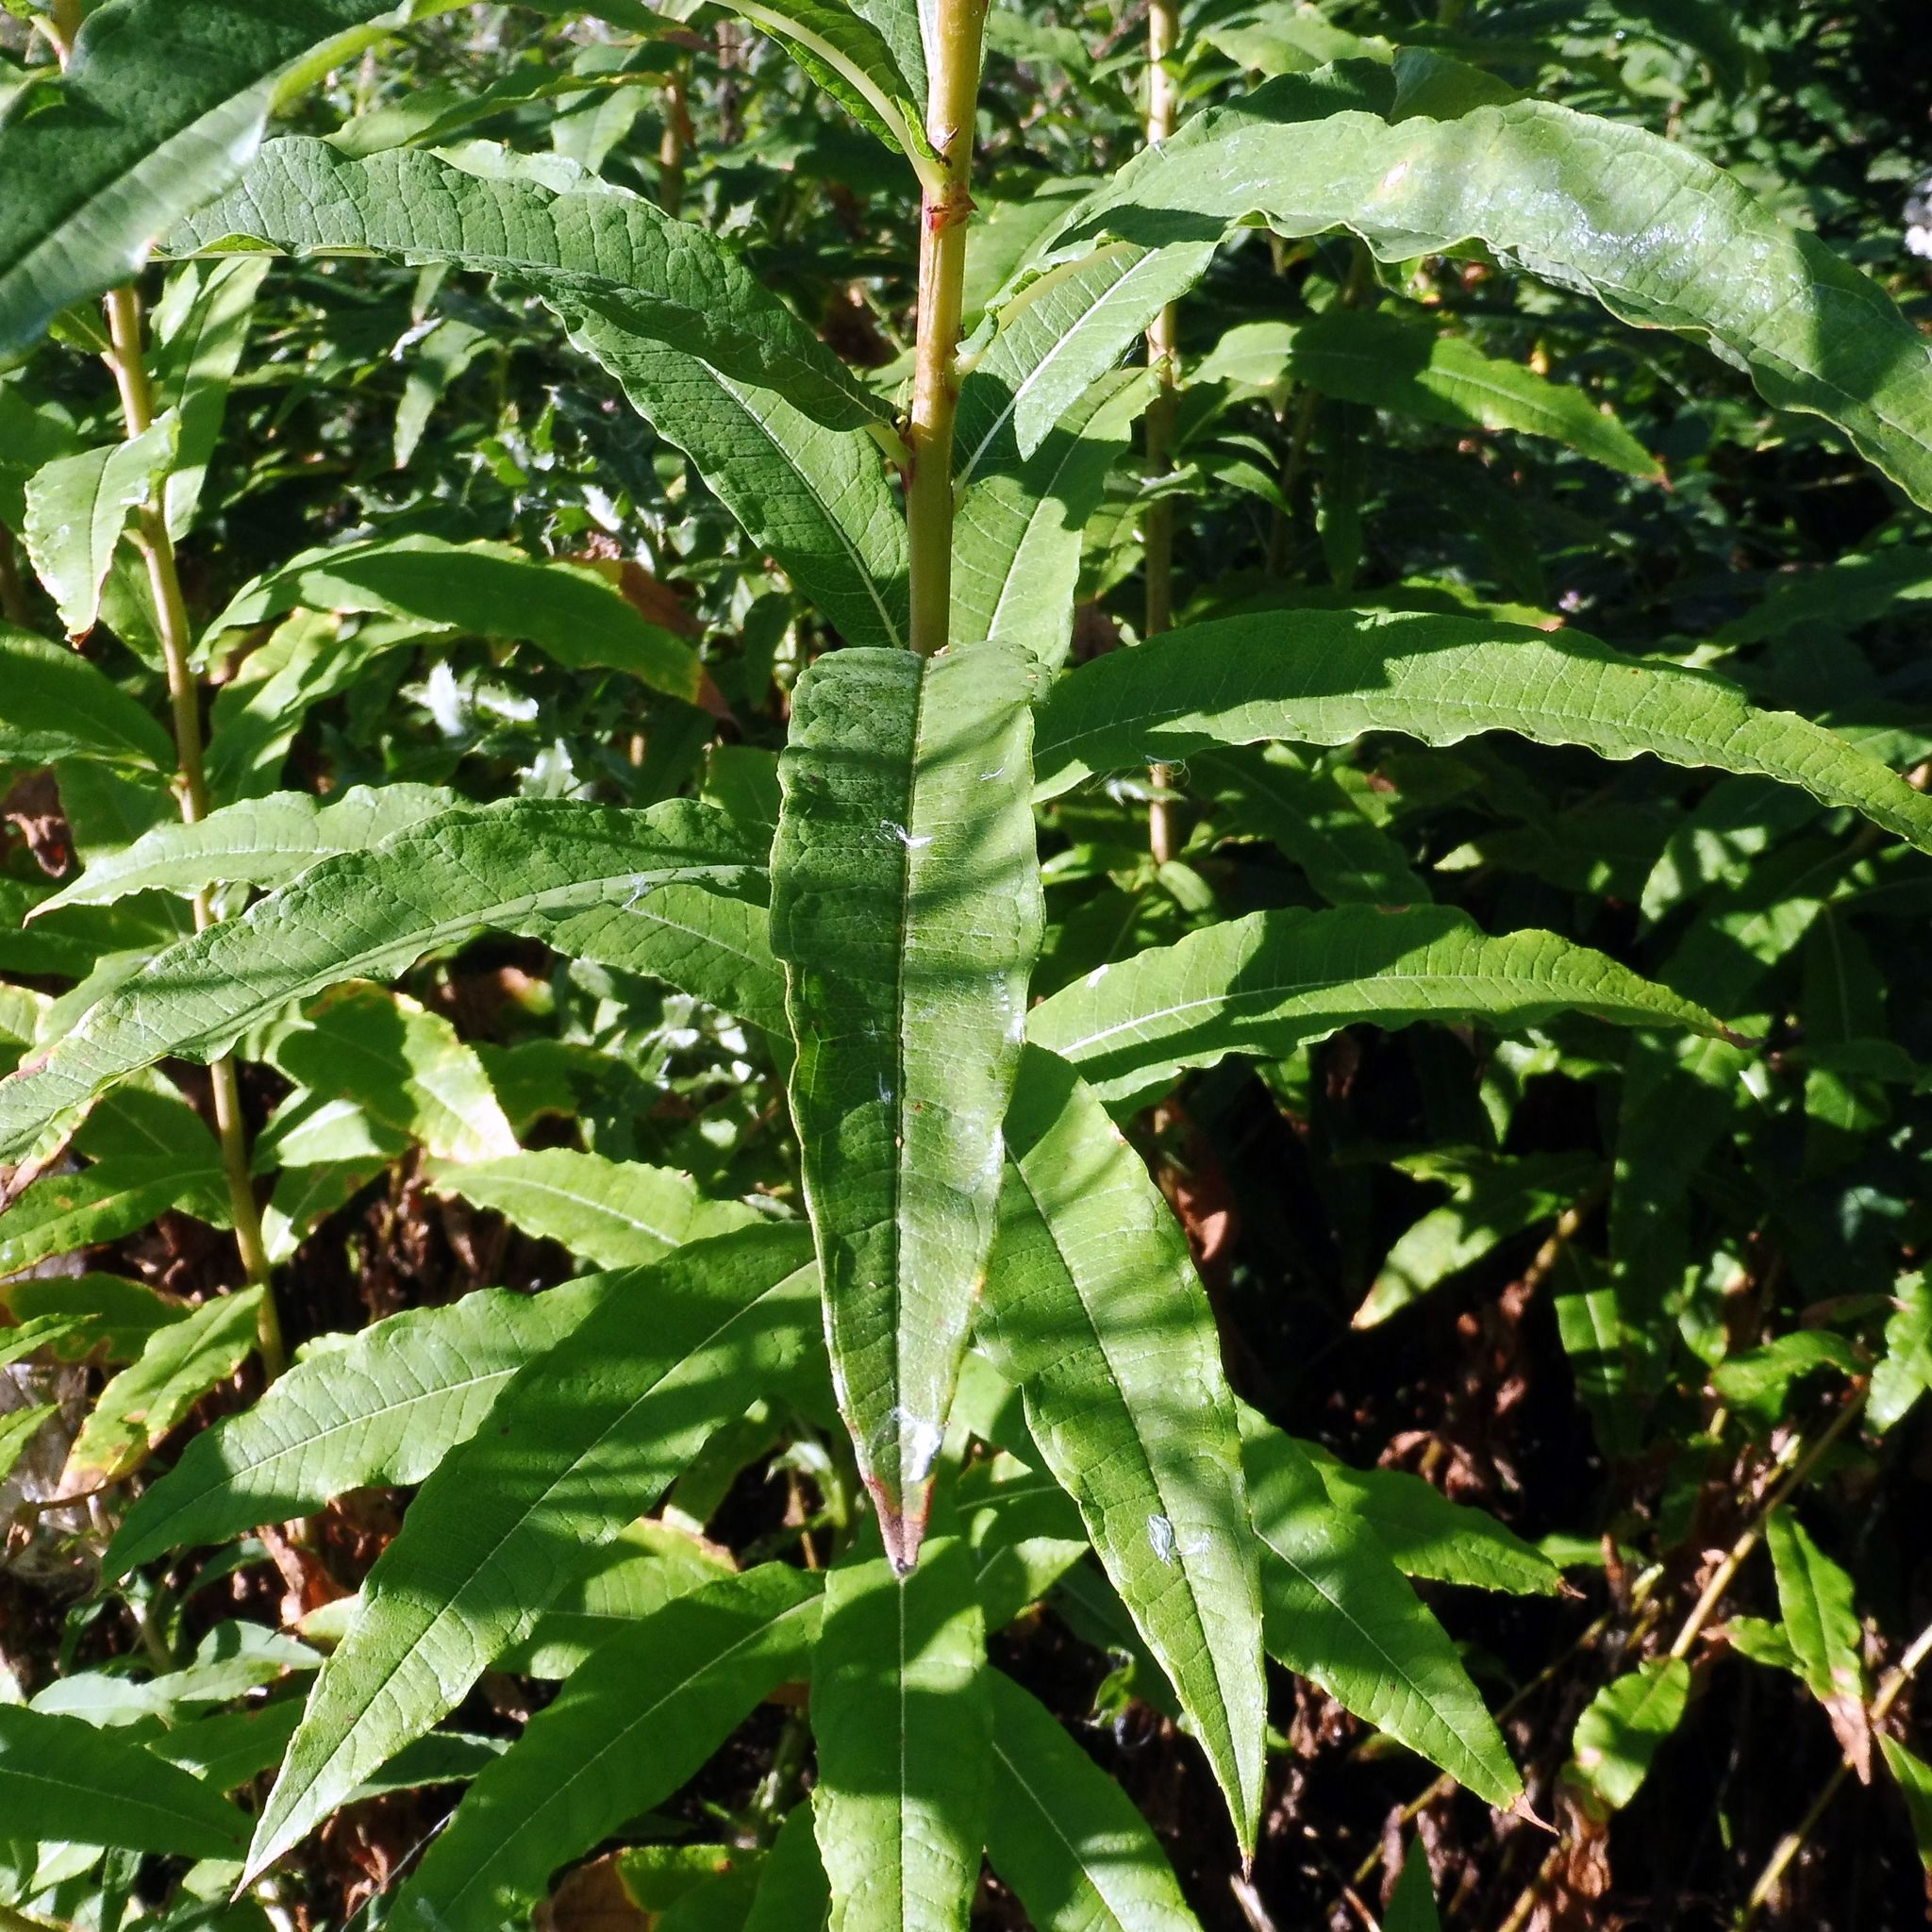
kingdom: Plantae
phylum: Tracheophyta
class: Magnoliopsida
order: Myrtales
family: Onagraceae
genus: Chamaenerion
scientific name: Chamaenerion angustifolium
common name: Fireweed
